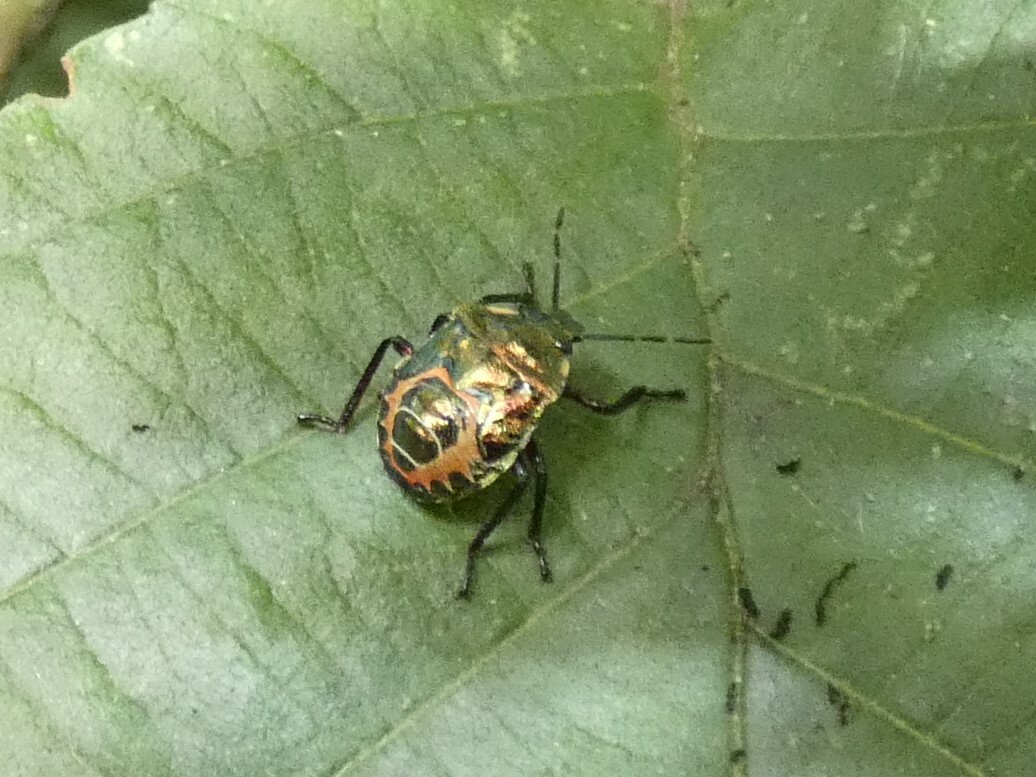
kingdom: Animalia
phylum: Arthropoda
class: Insecta
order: Hemiptera
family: Pentatomidae
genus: Troilus
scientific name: Troilus luridus
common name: Bronze shieldbug
